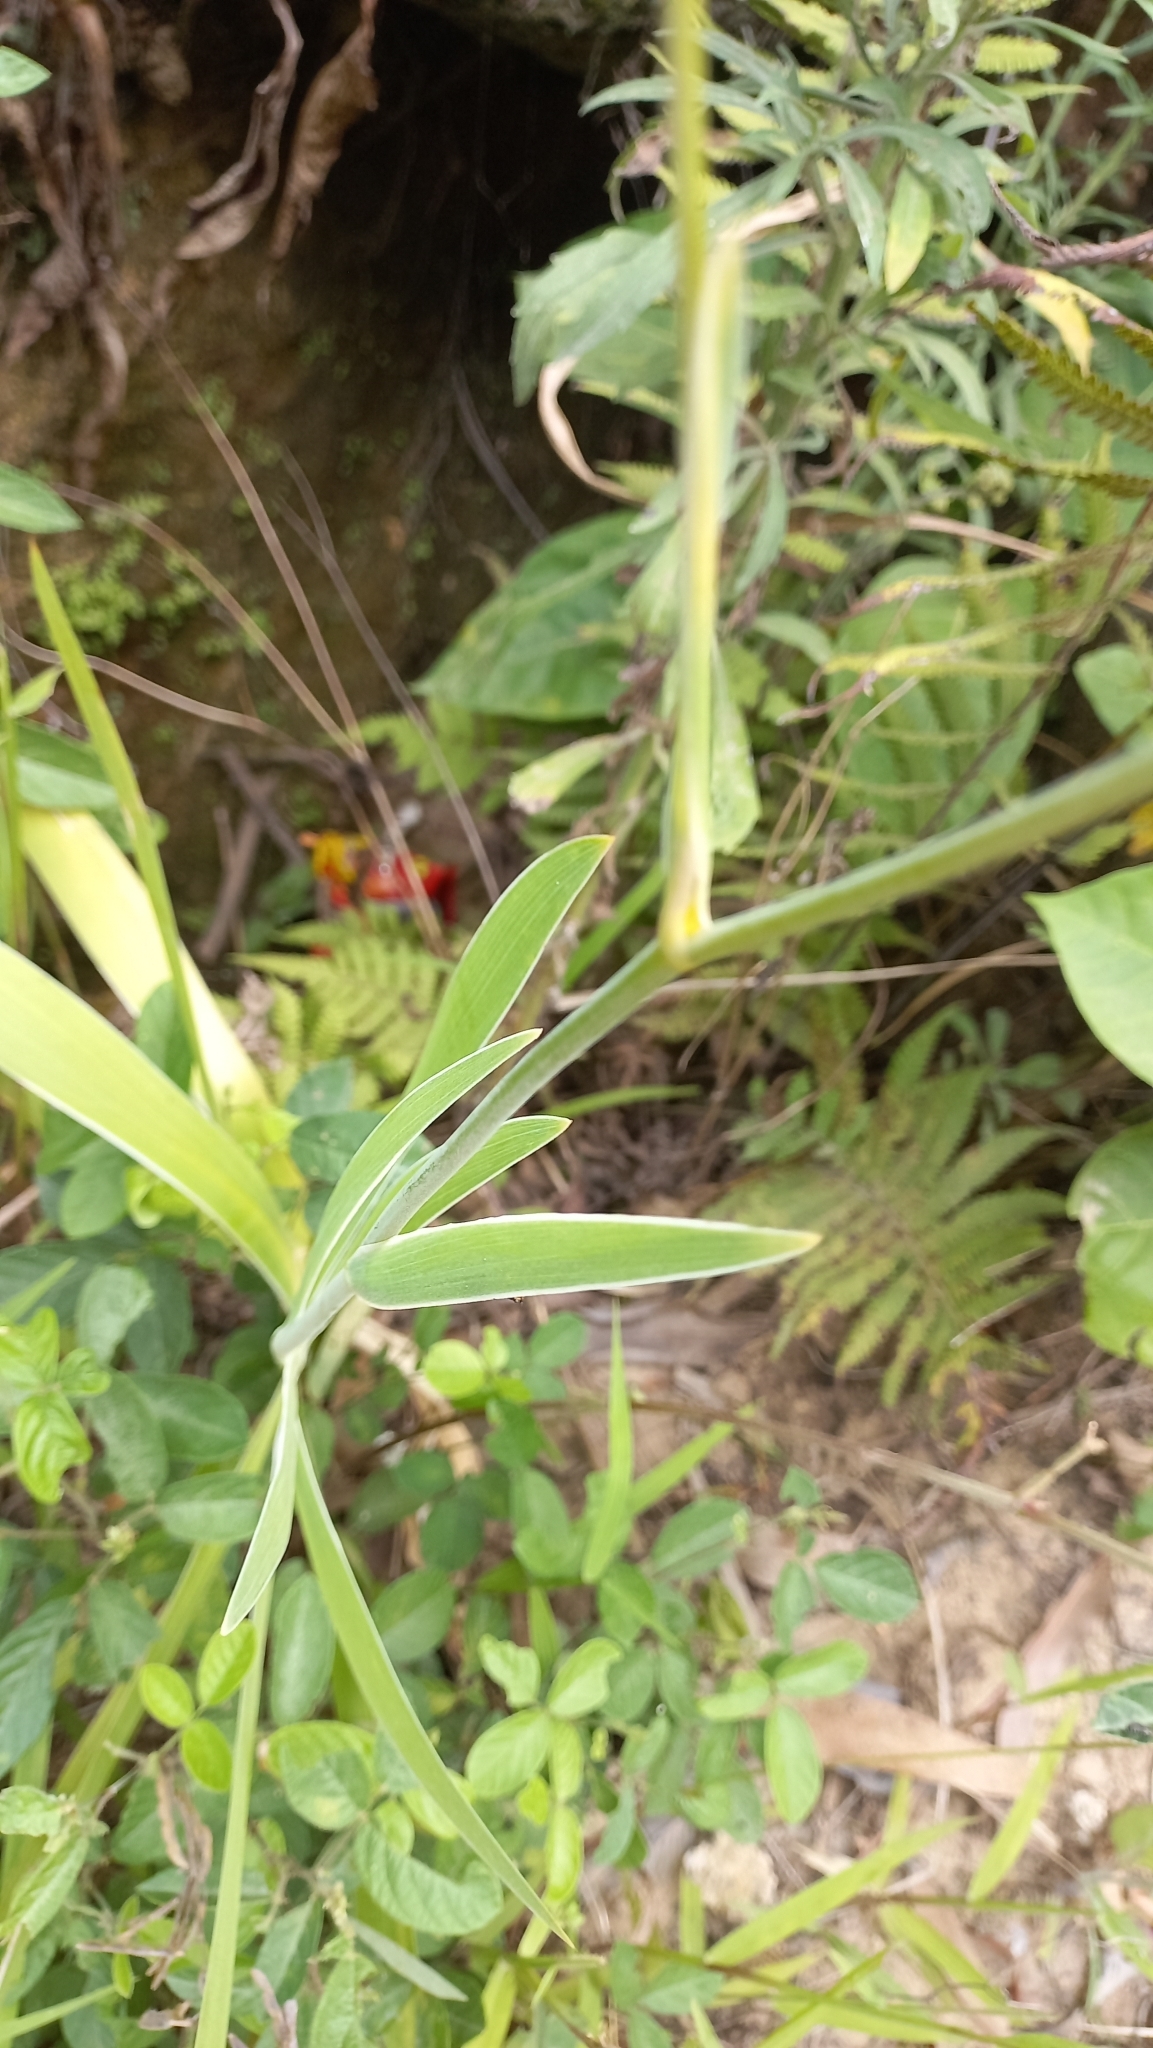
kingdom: Plantae
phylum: Tracheophyta
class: Liliopsida
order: Asparagales
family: Iridaceae
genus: Iris
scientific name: Iris domestica
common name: Belamcanda
